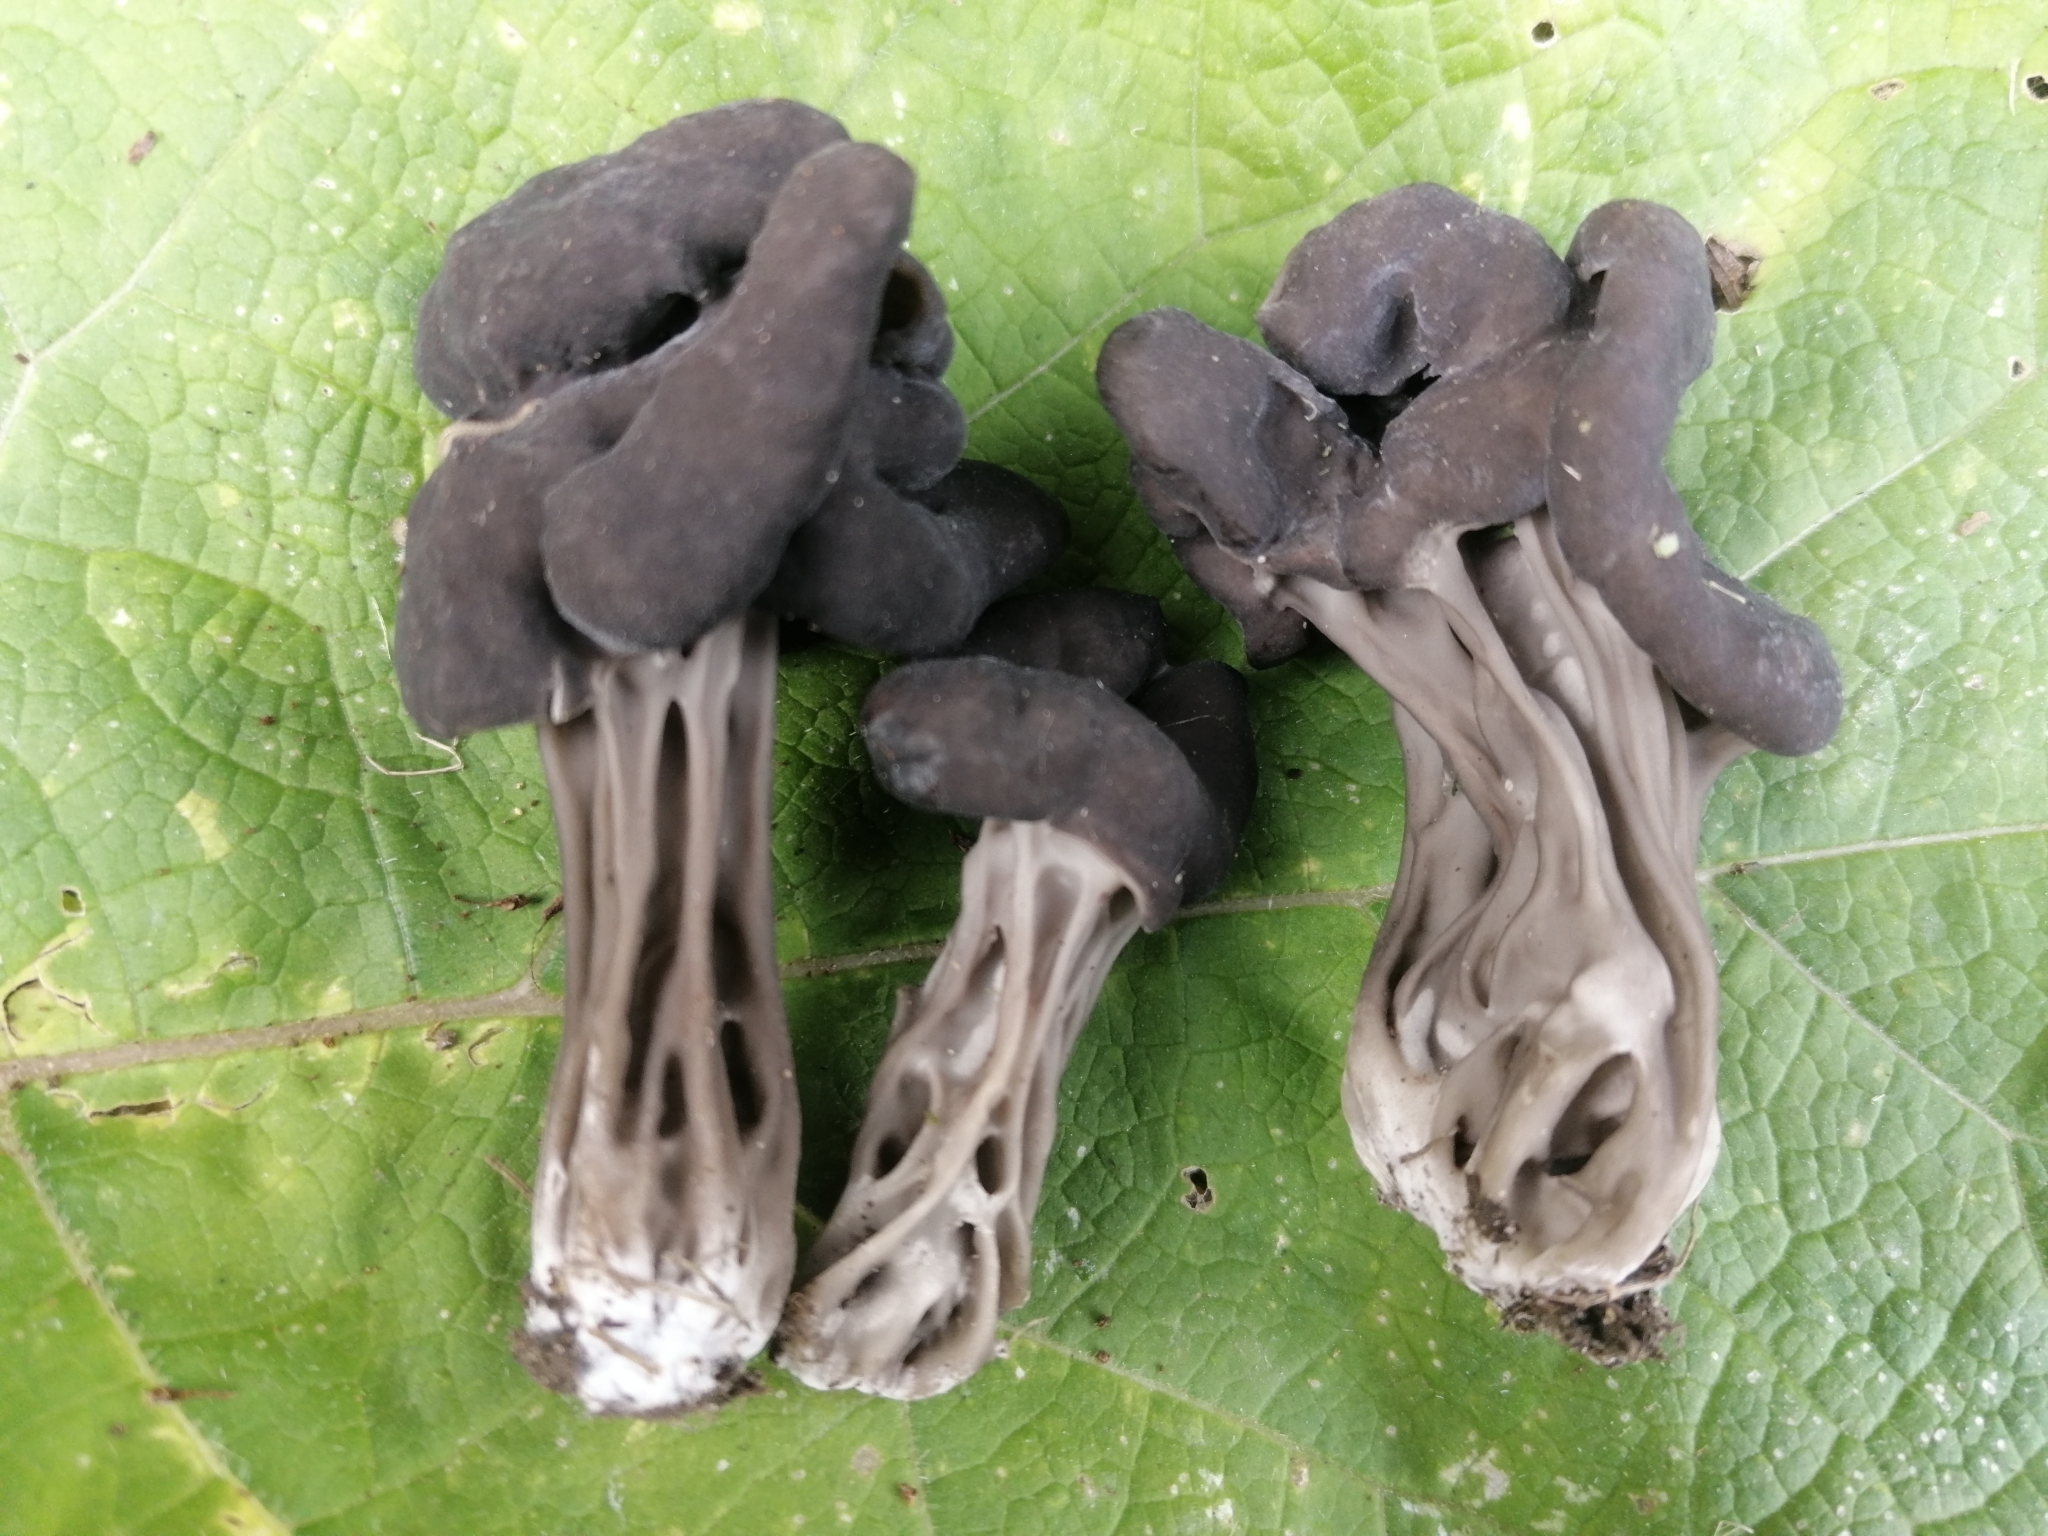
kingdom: Fungi
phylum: Ascomycota
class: Pezizomycetes
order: Pezizales
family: Helvellaceae
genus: Helvella
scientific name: Helvella lacunosa
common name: Elfin saddle
